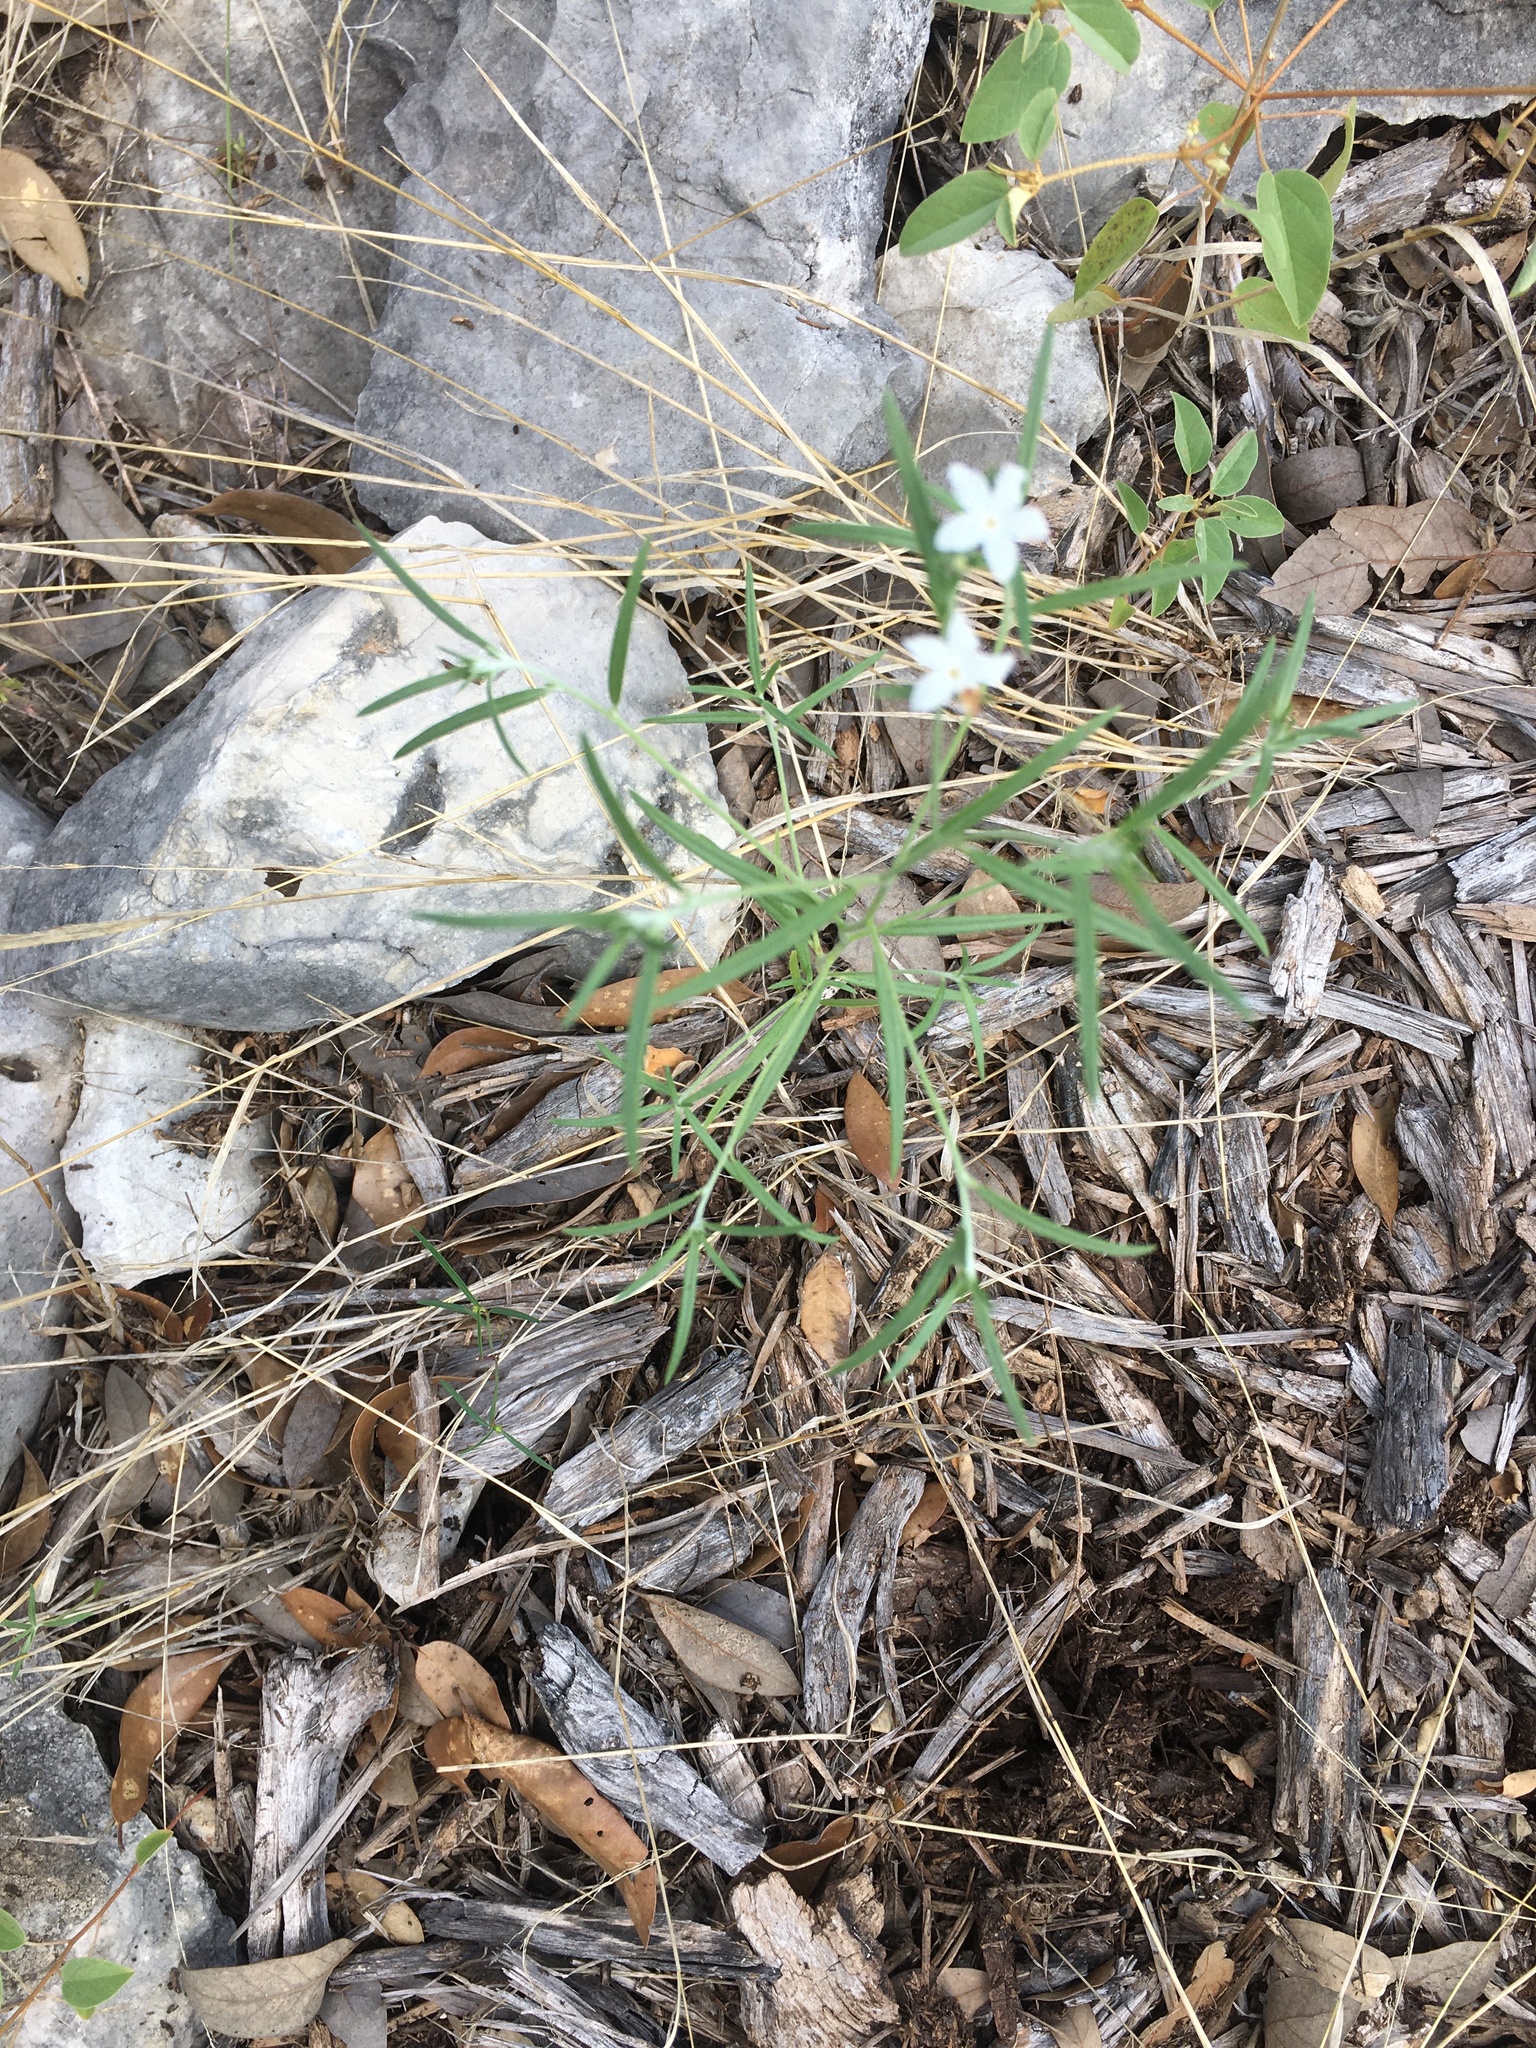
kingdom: Plantae
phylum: Tracheophyta
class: Magnoliopsida
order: Boraginales
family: Heliotropiaceae
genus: Euploca
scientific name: Euploca tenella
